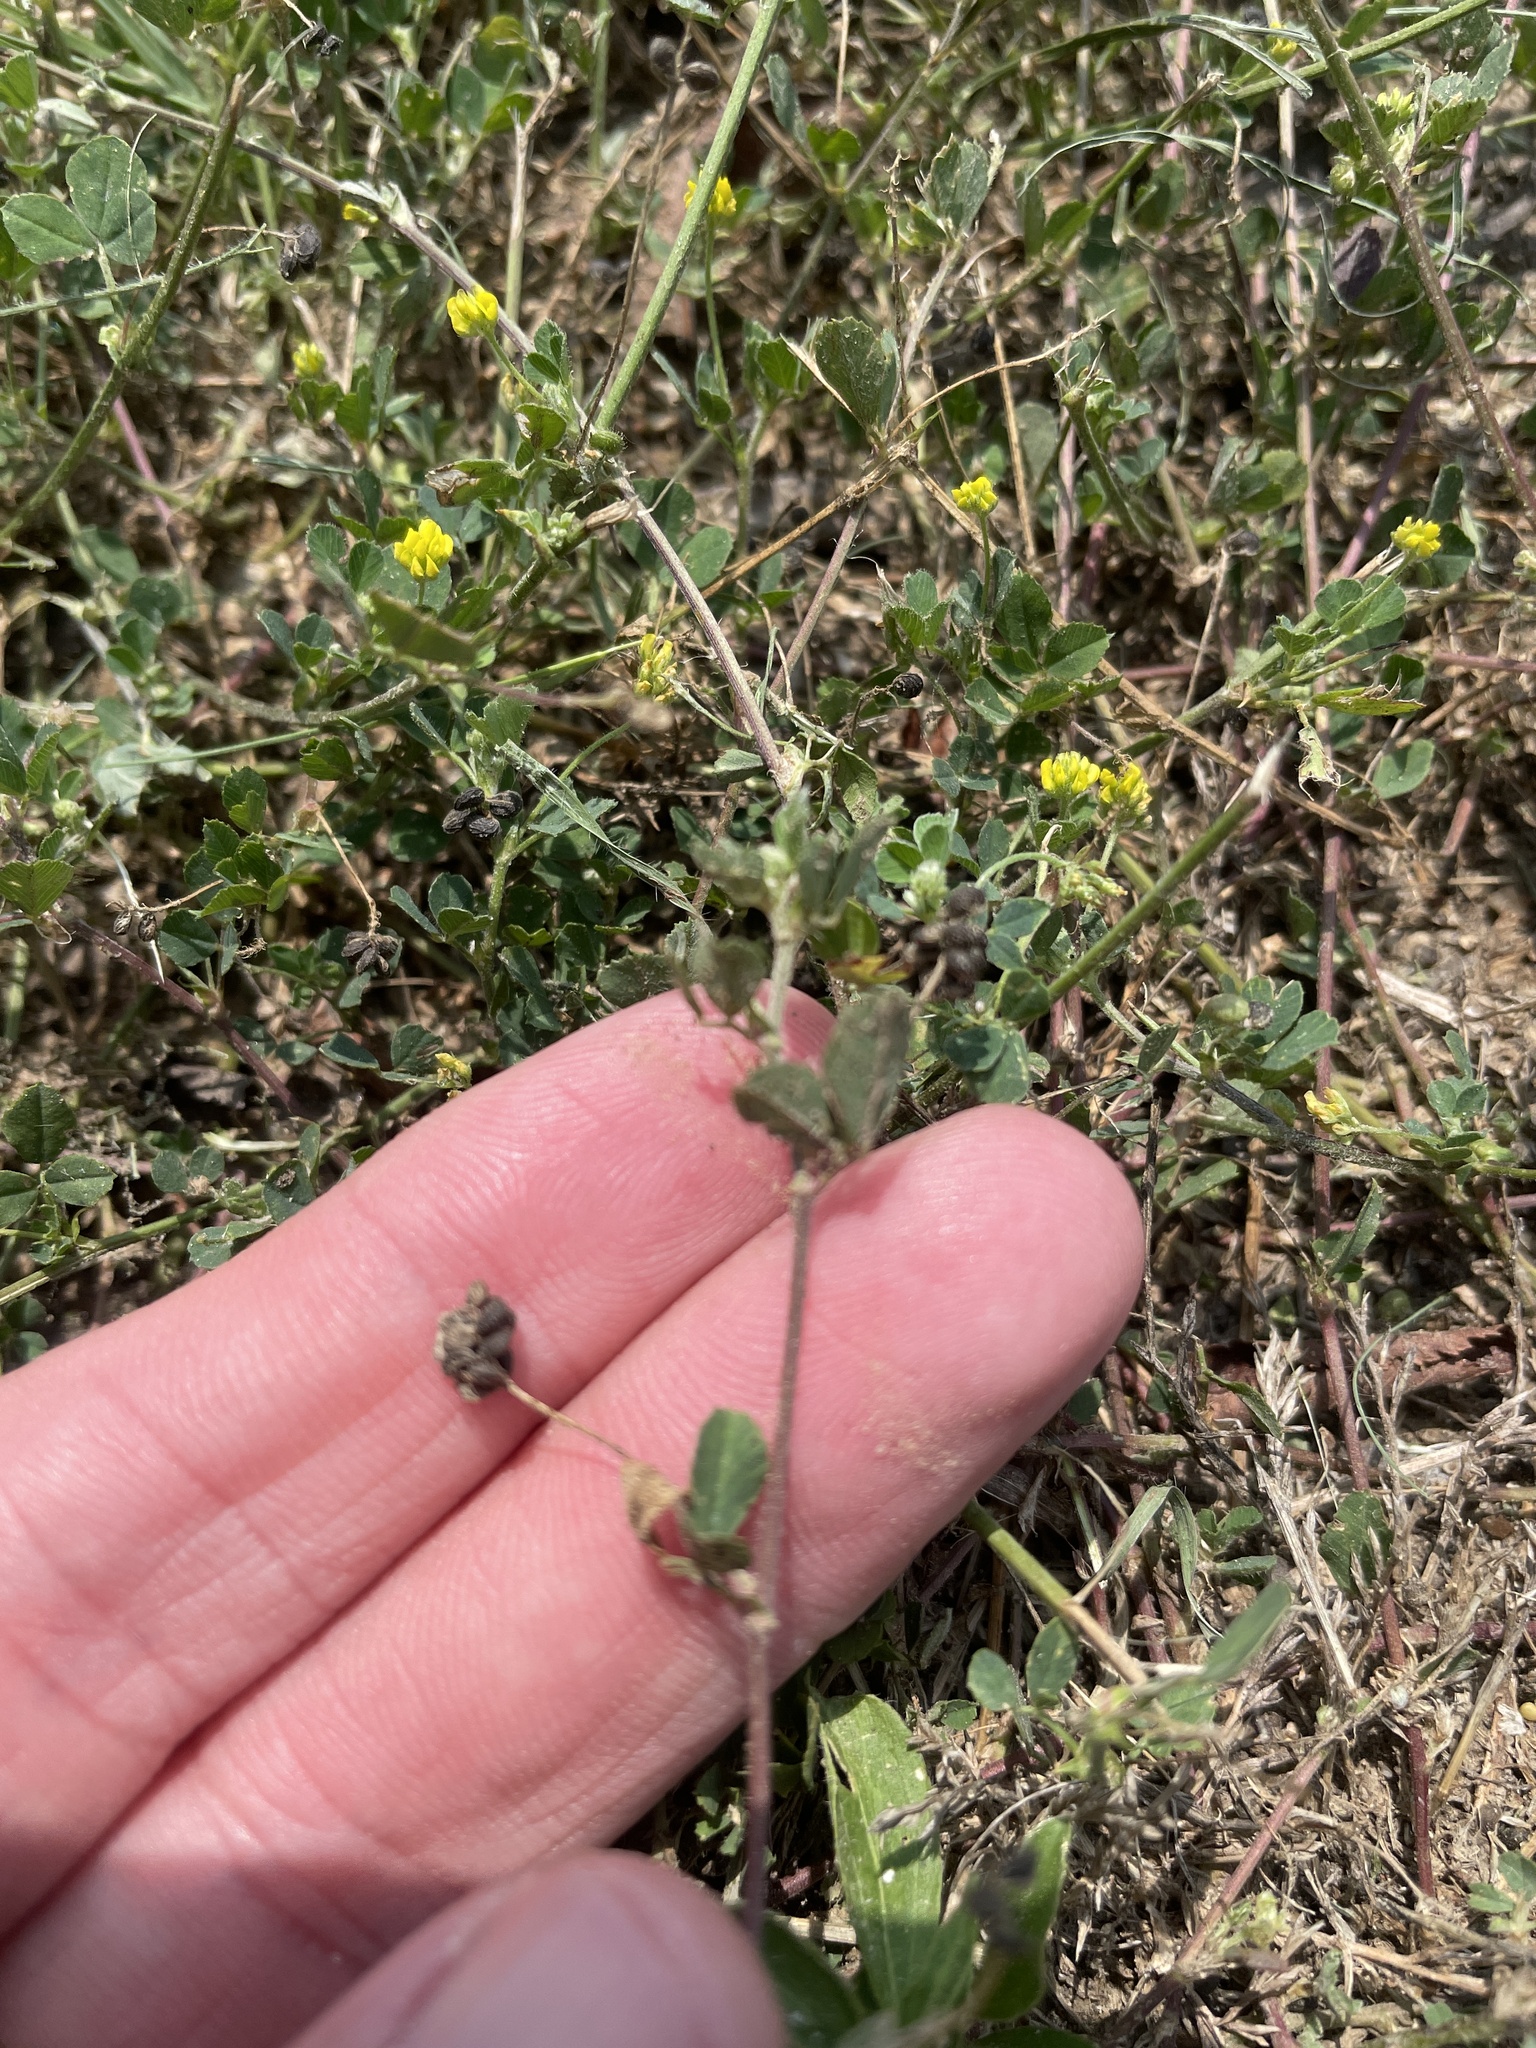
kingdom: Plantae
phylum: Tracheophyta
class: Magnoliopsida
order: Fabales
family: Fabaceae
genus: Medicago
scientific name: Medicago lupulina
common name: Black medick
